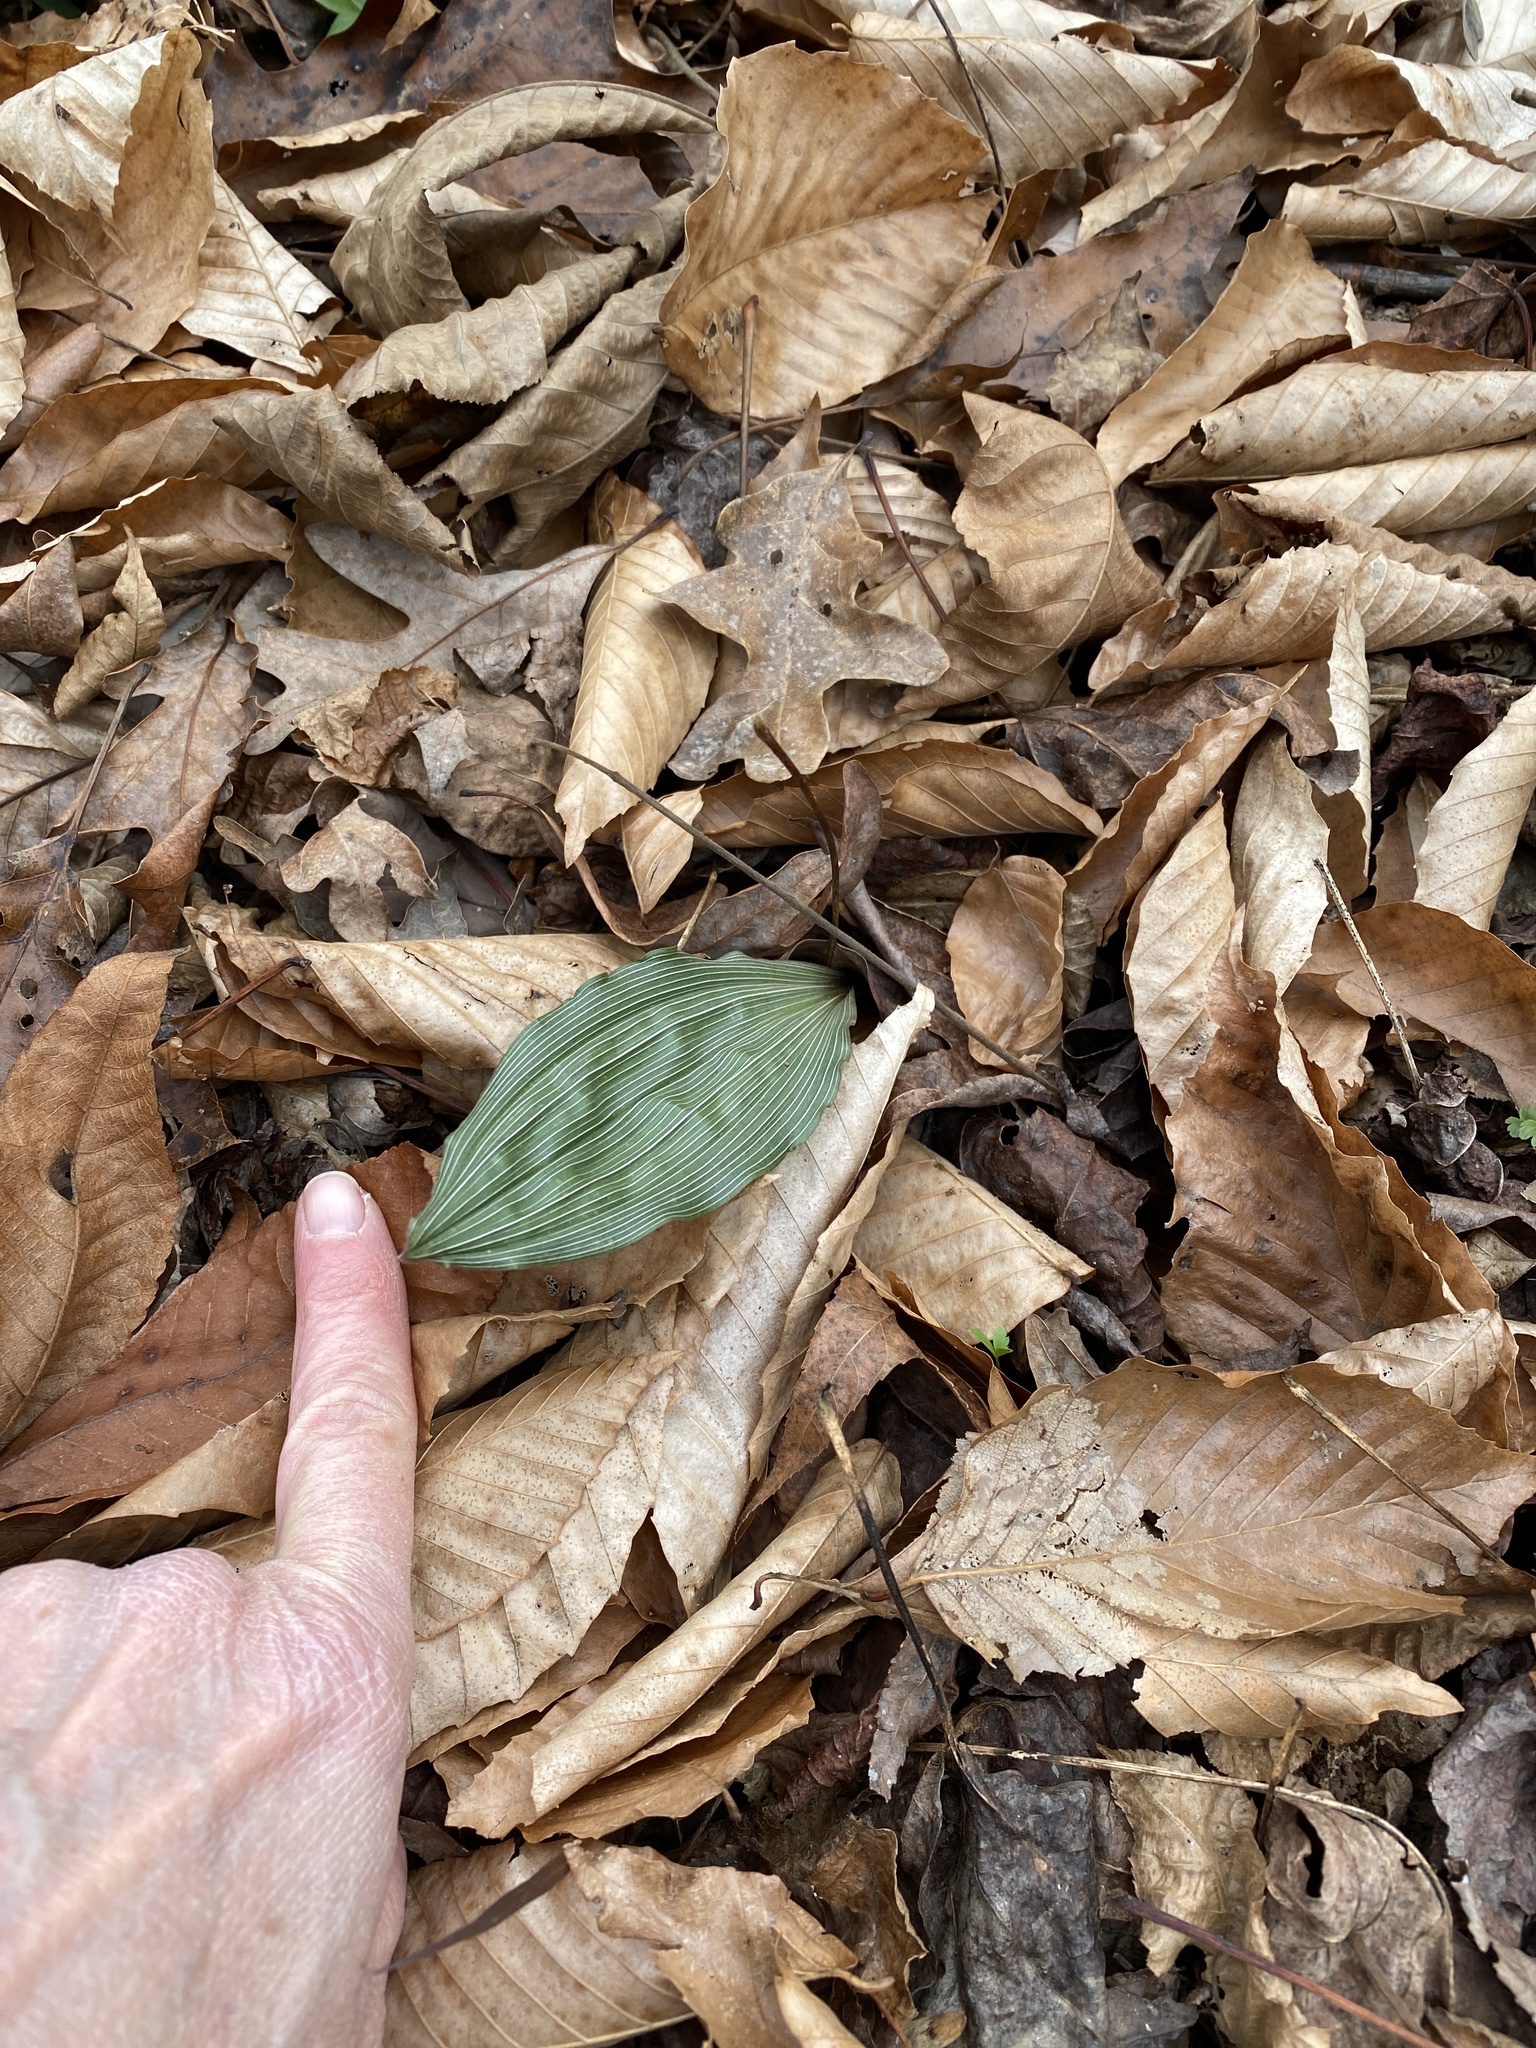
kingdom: Plantae
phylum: Tracheophyta
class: Liliopsida
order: Asparagales
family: Orchidaceae
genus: Aplectrum
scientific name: Aplectrum hyemale
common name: Adam-and-eve
